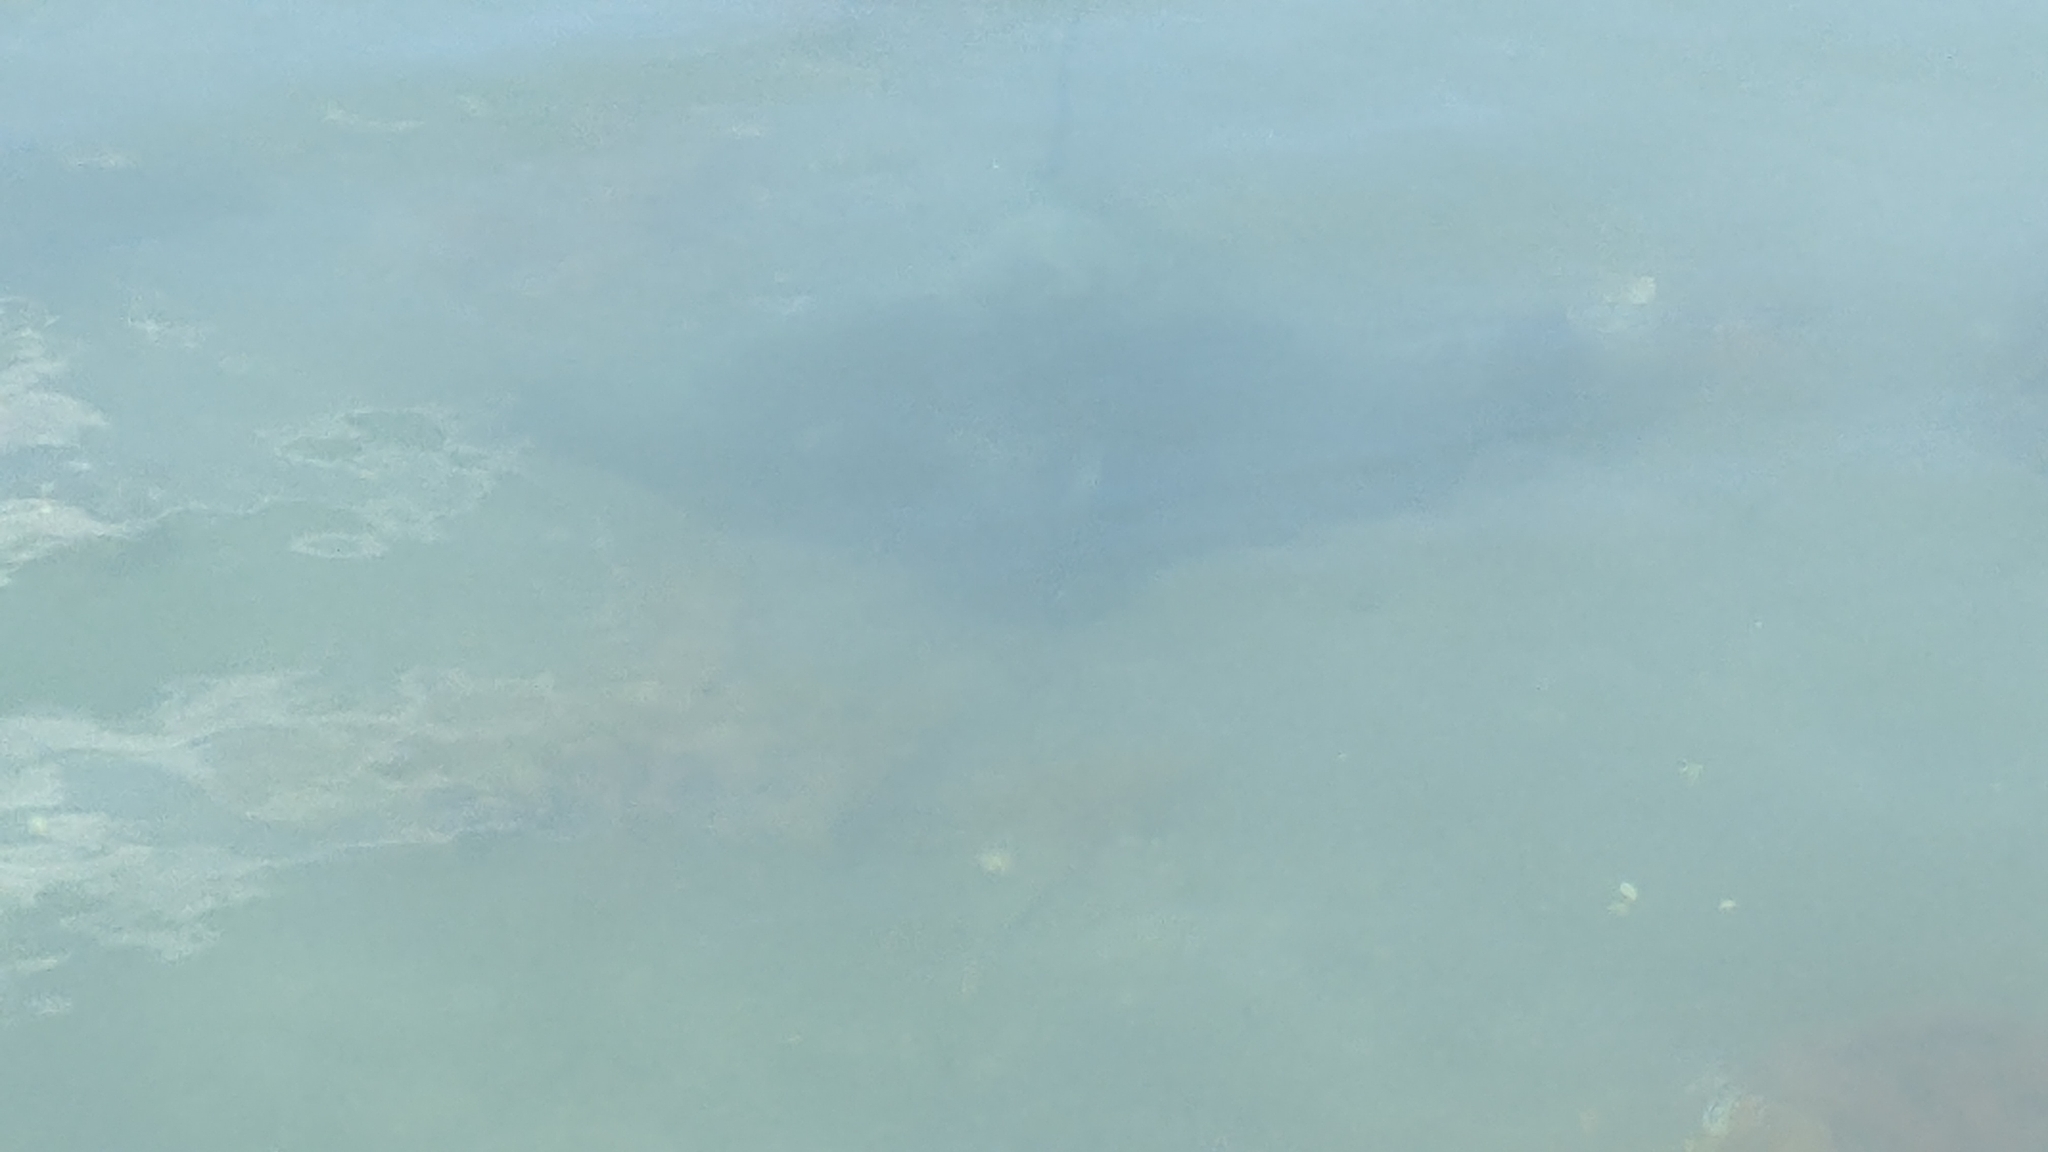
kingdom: Animalia
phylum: Chordata
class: Elasmobranchii
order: Myliobatiformes
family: Myliobatidae
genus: Myliobatis
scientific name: Myliobatis tenuicaudatus
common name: Eagle ray
